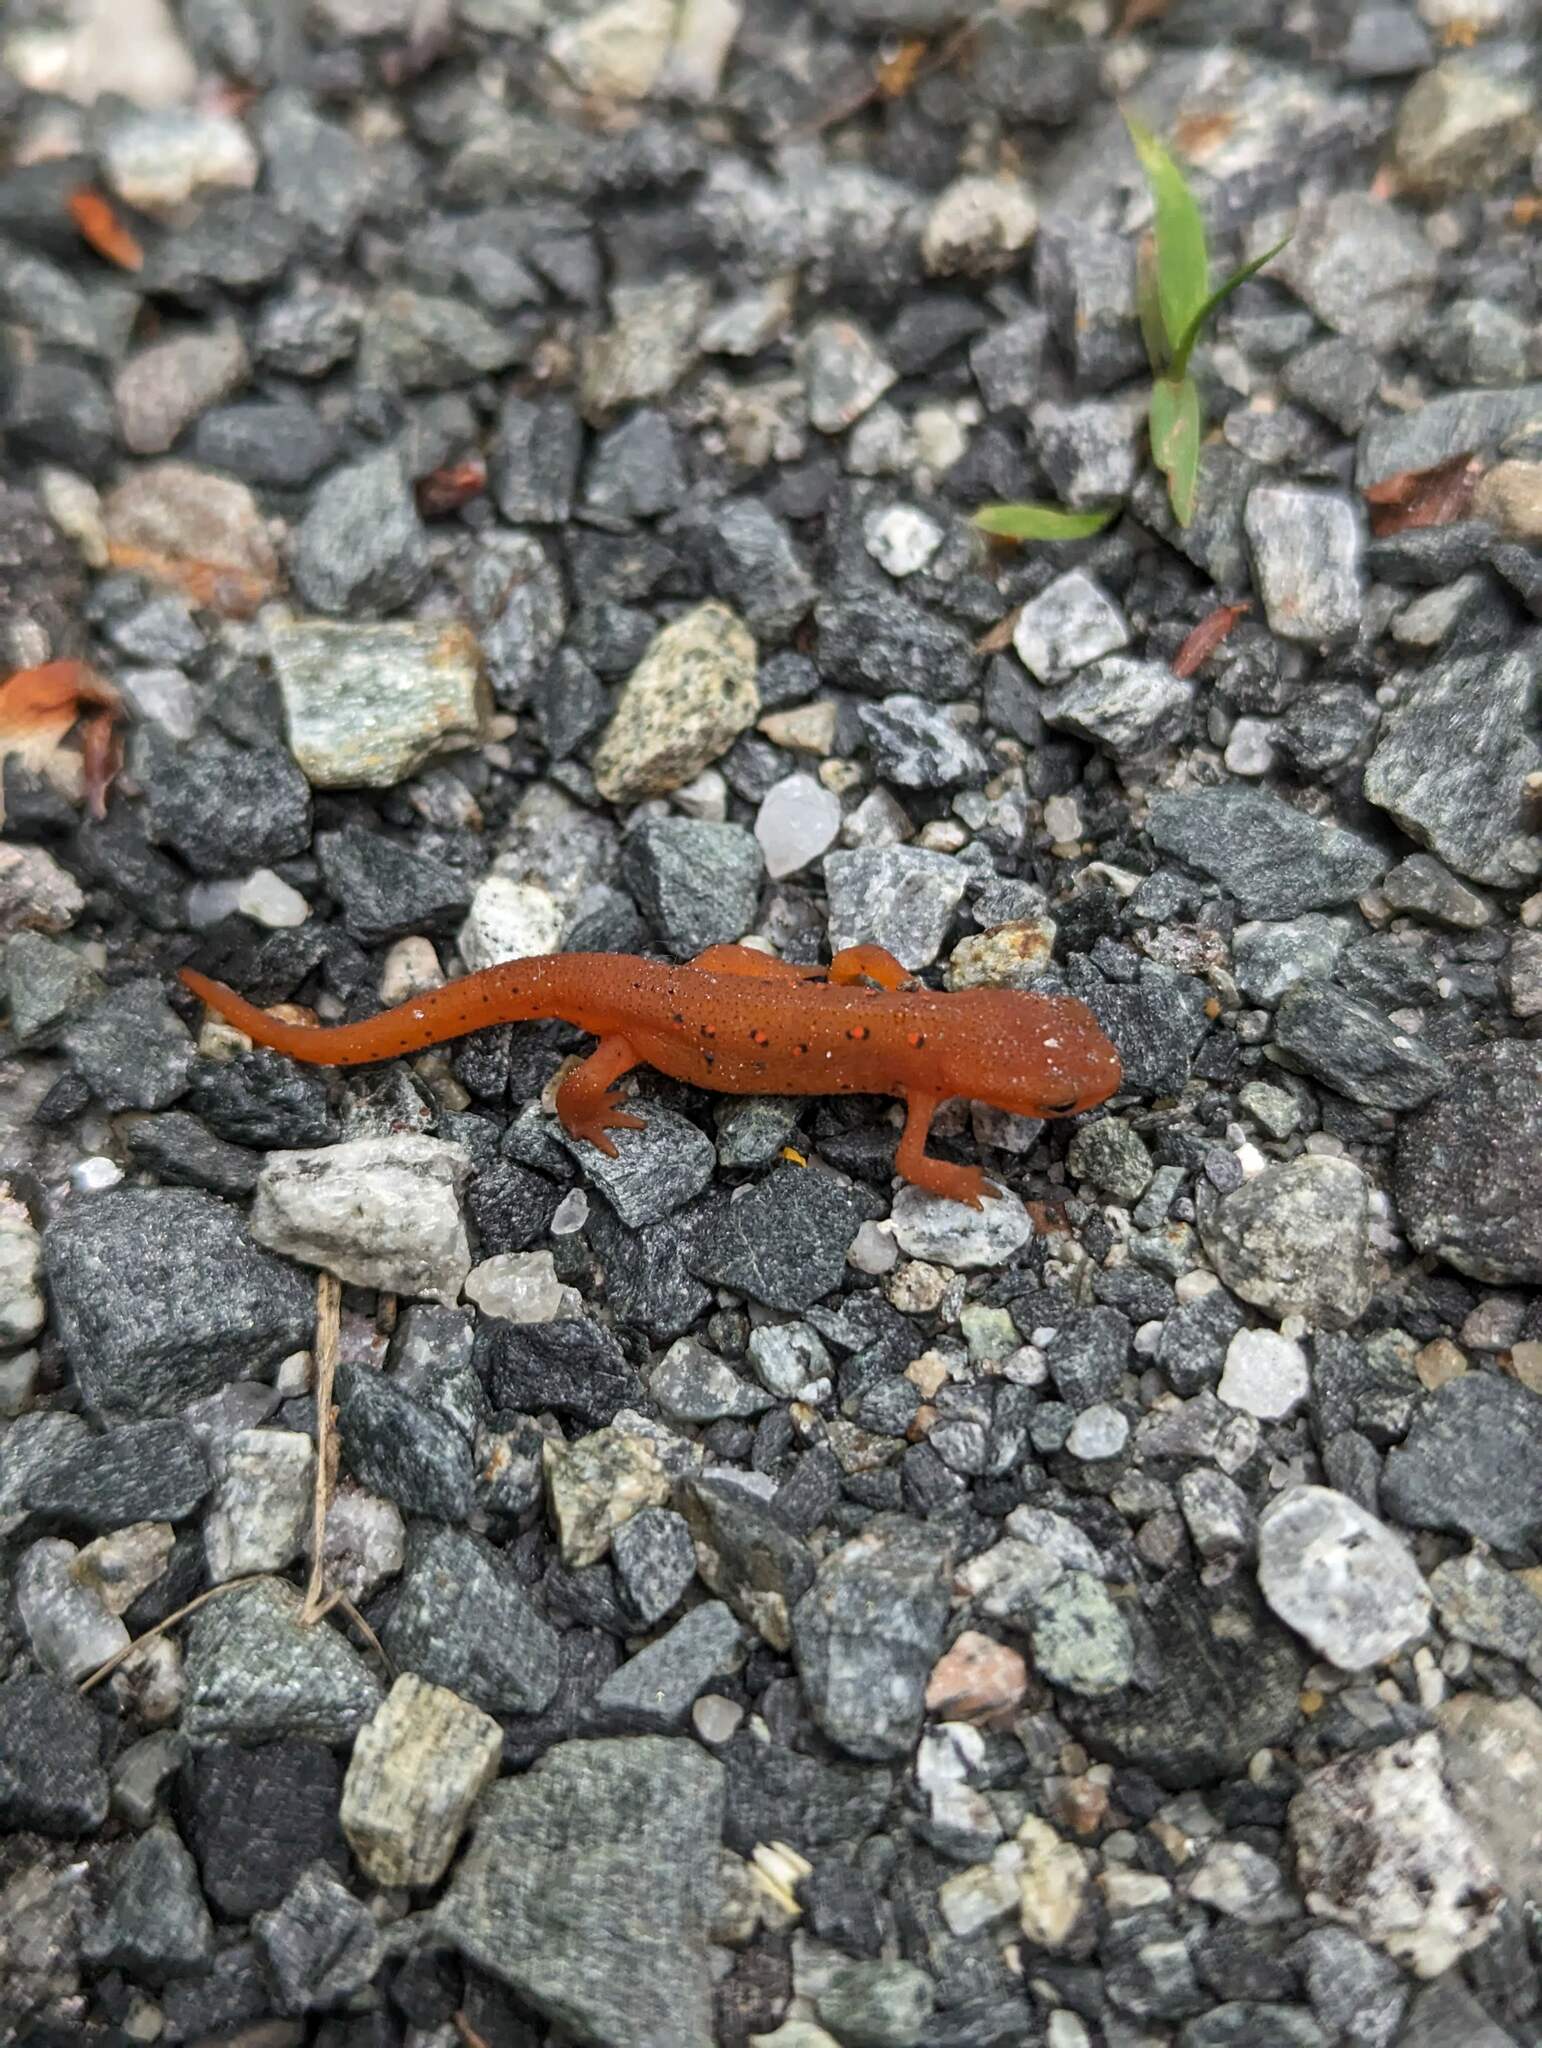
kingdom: Animalia
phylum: Chordata
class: Amphibia
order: Caudata
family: Salamandridae
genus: Notophthalmus
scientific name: Notophthalmus viridescens
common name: Eastern newt
